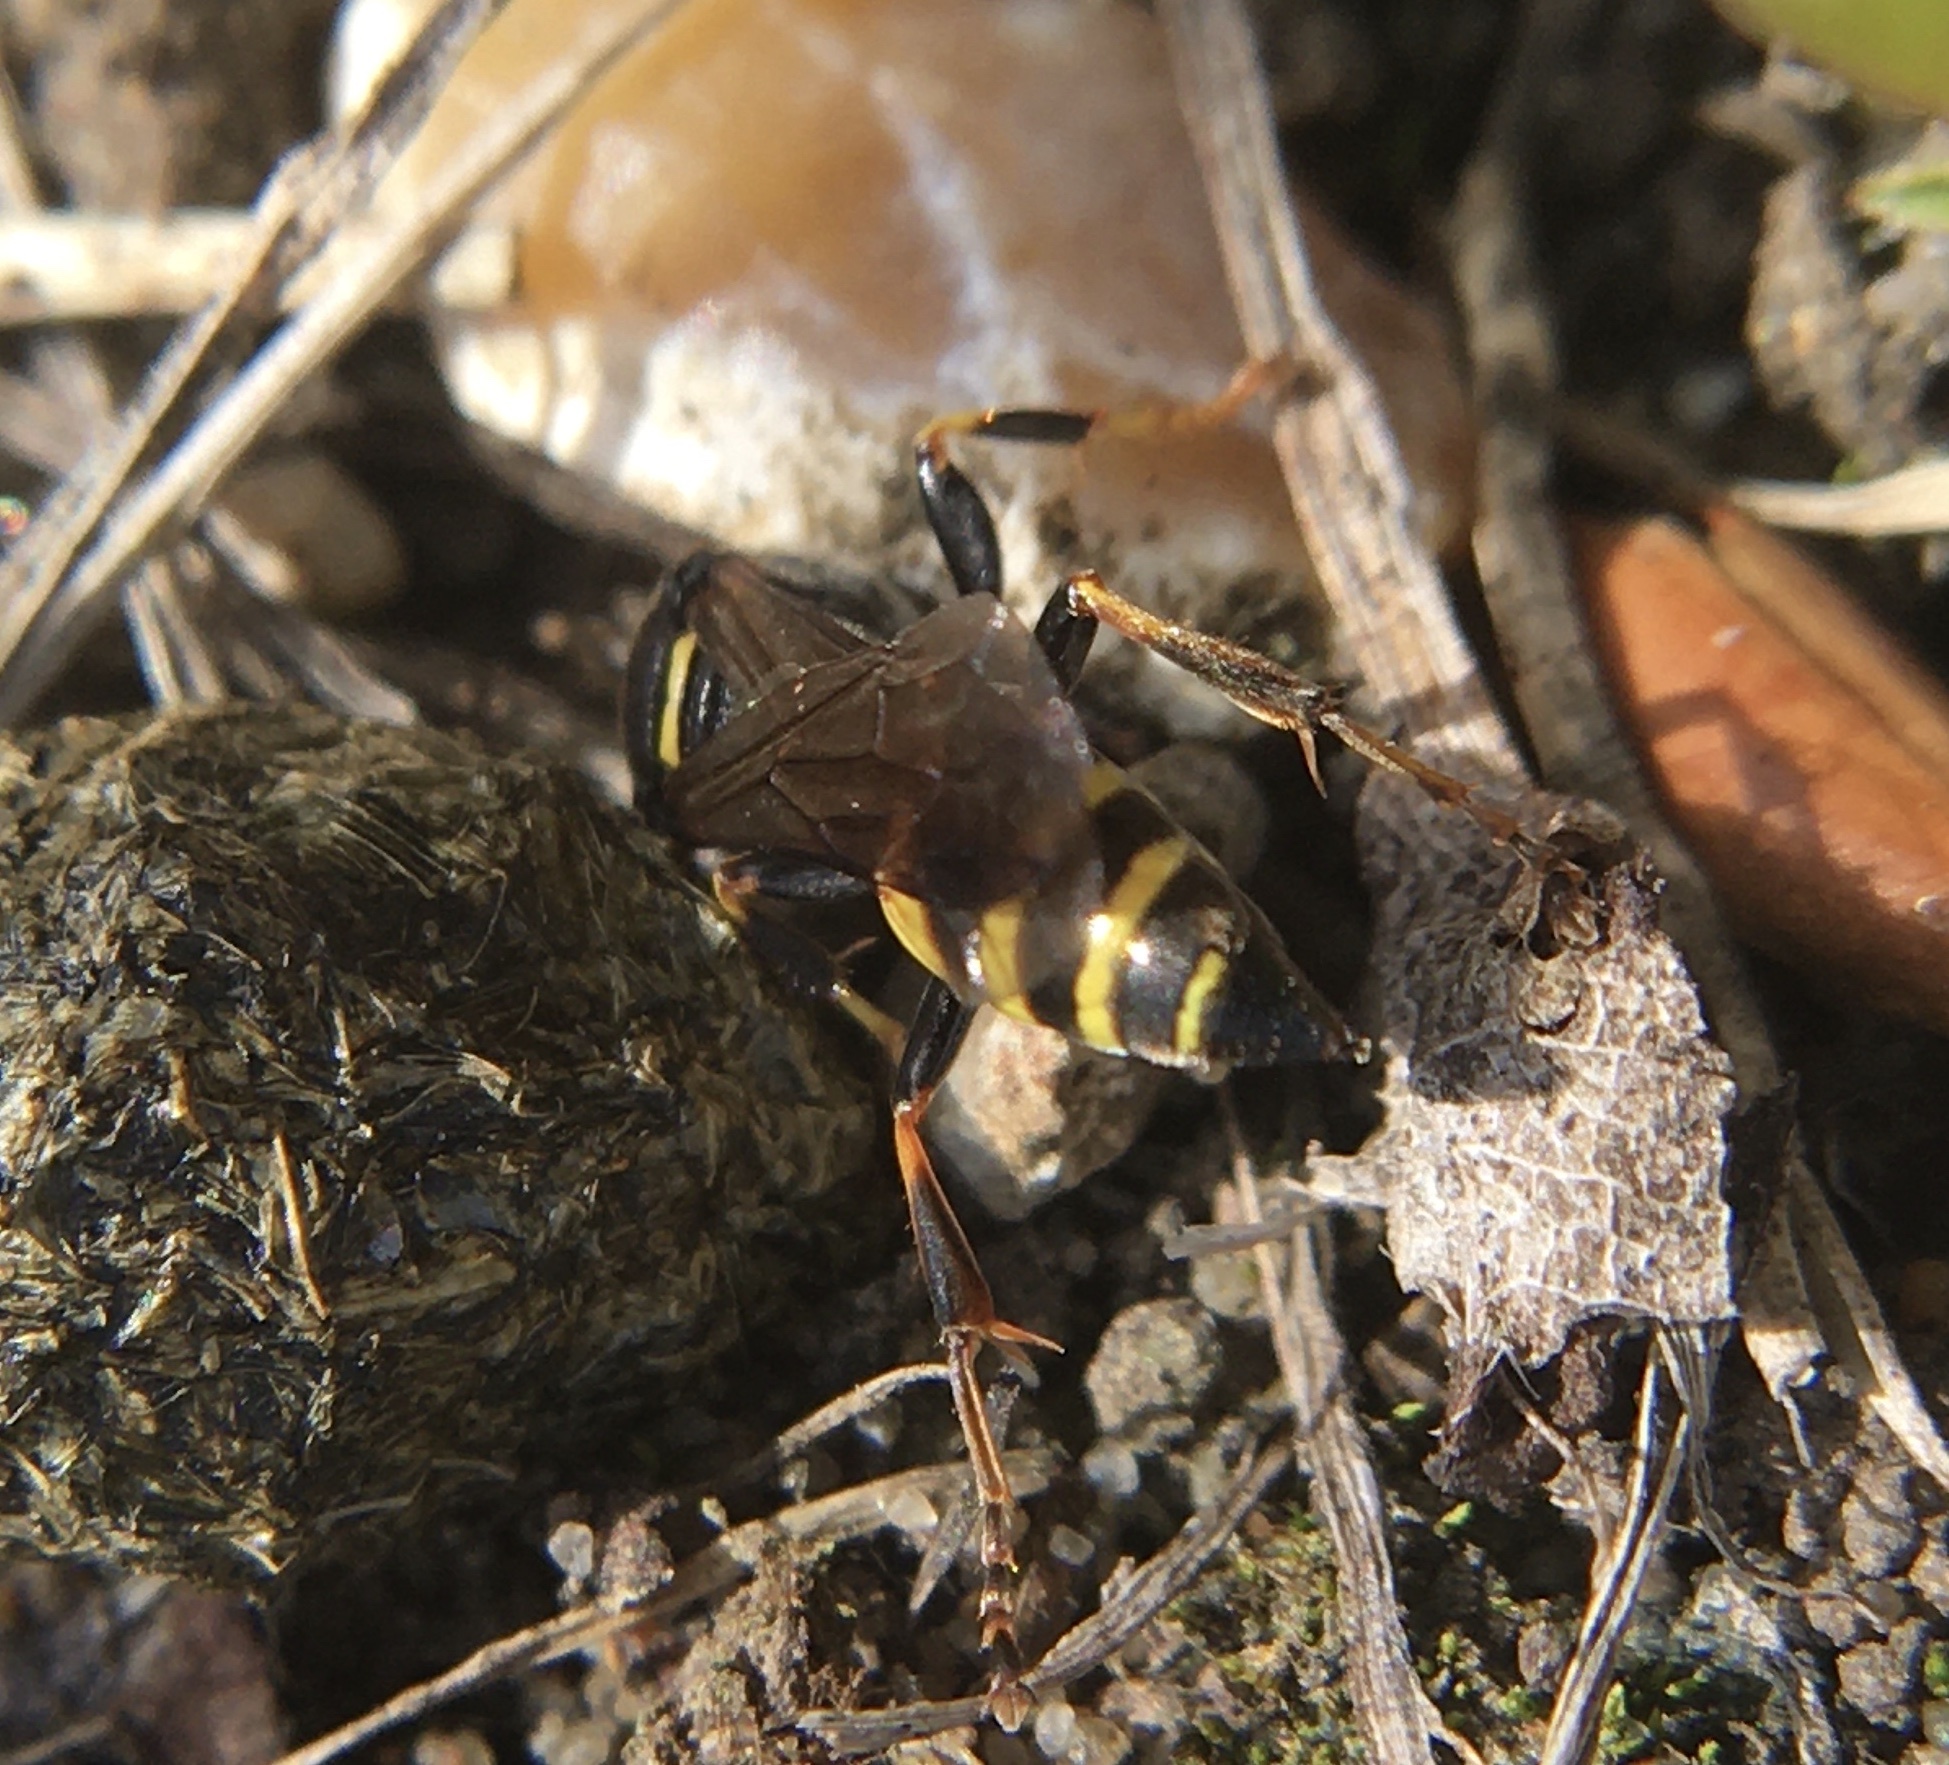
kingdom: Animalia
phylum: Arthropoda
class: Insecta
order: Hymenoptera
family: Crabronidae
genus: Gorytes
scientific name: Gorytes laticinctus
